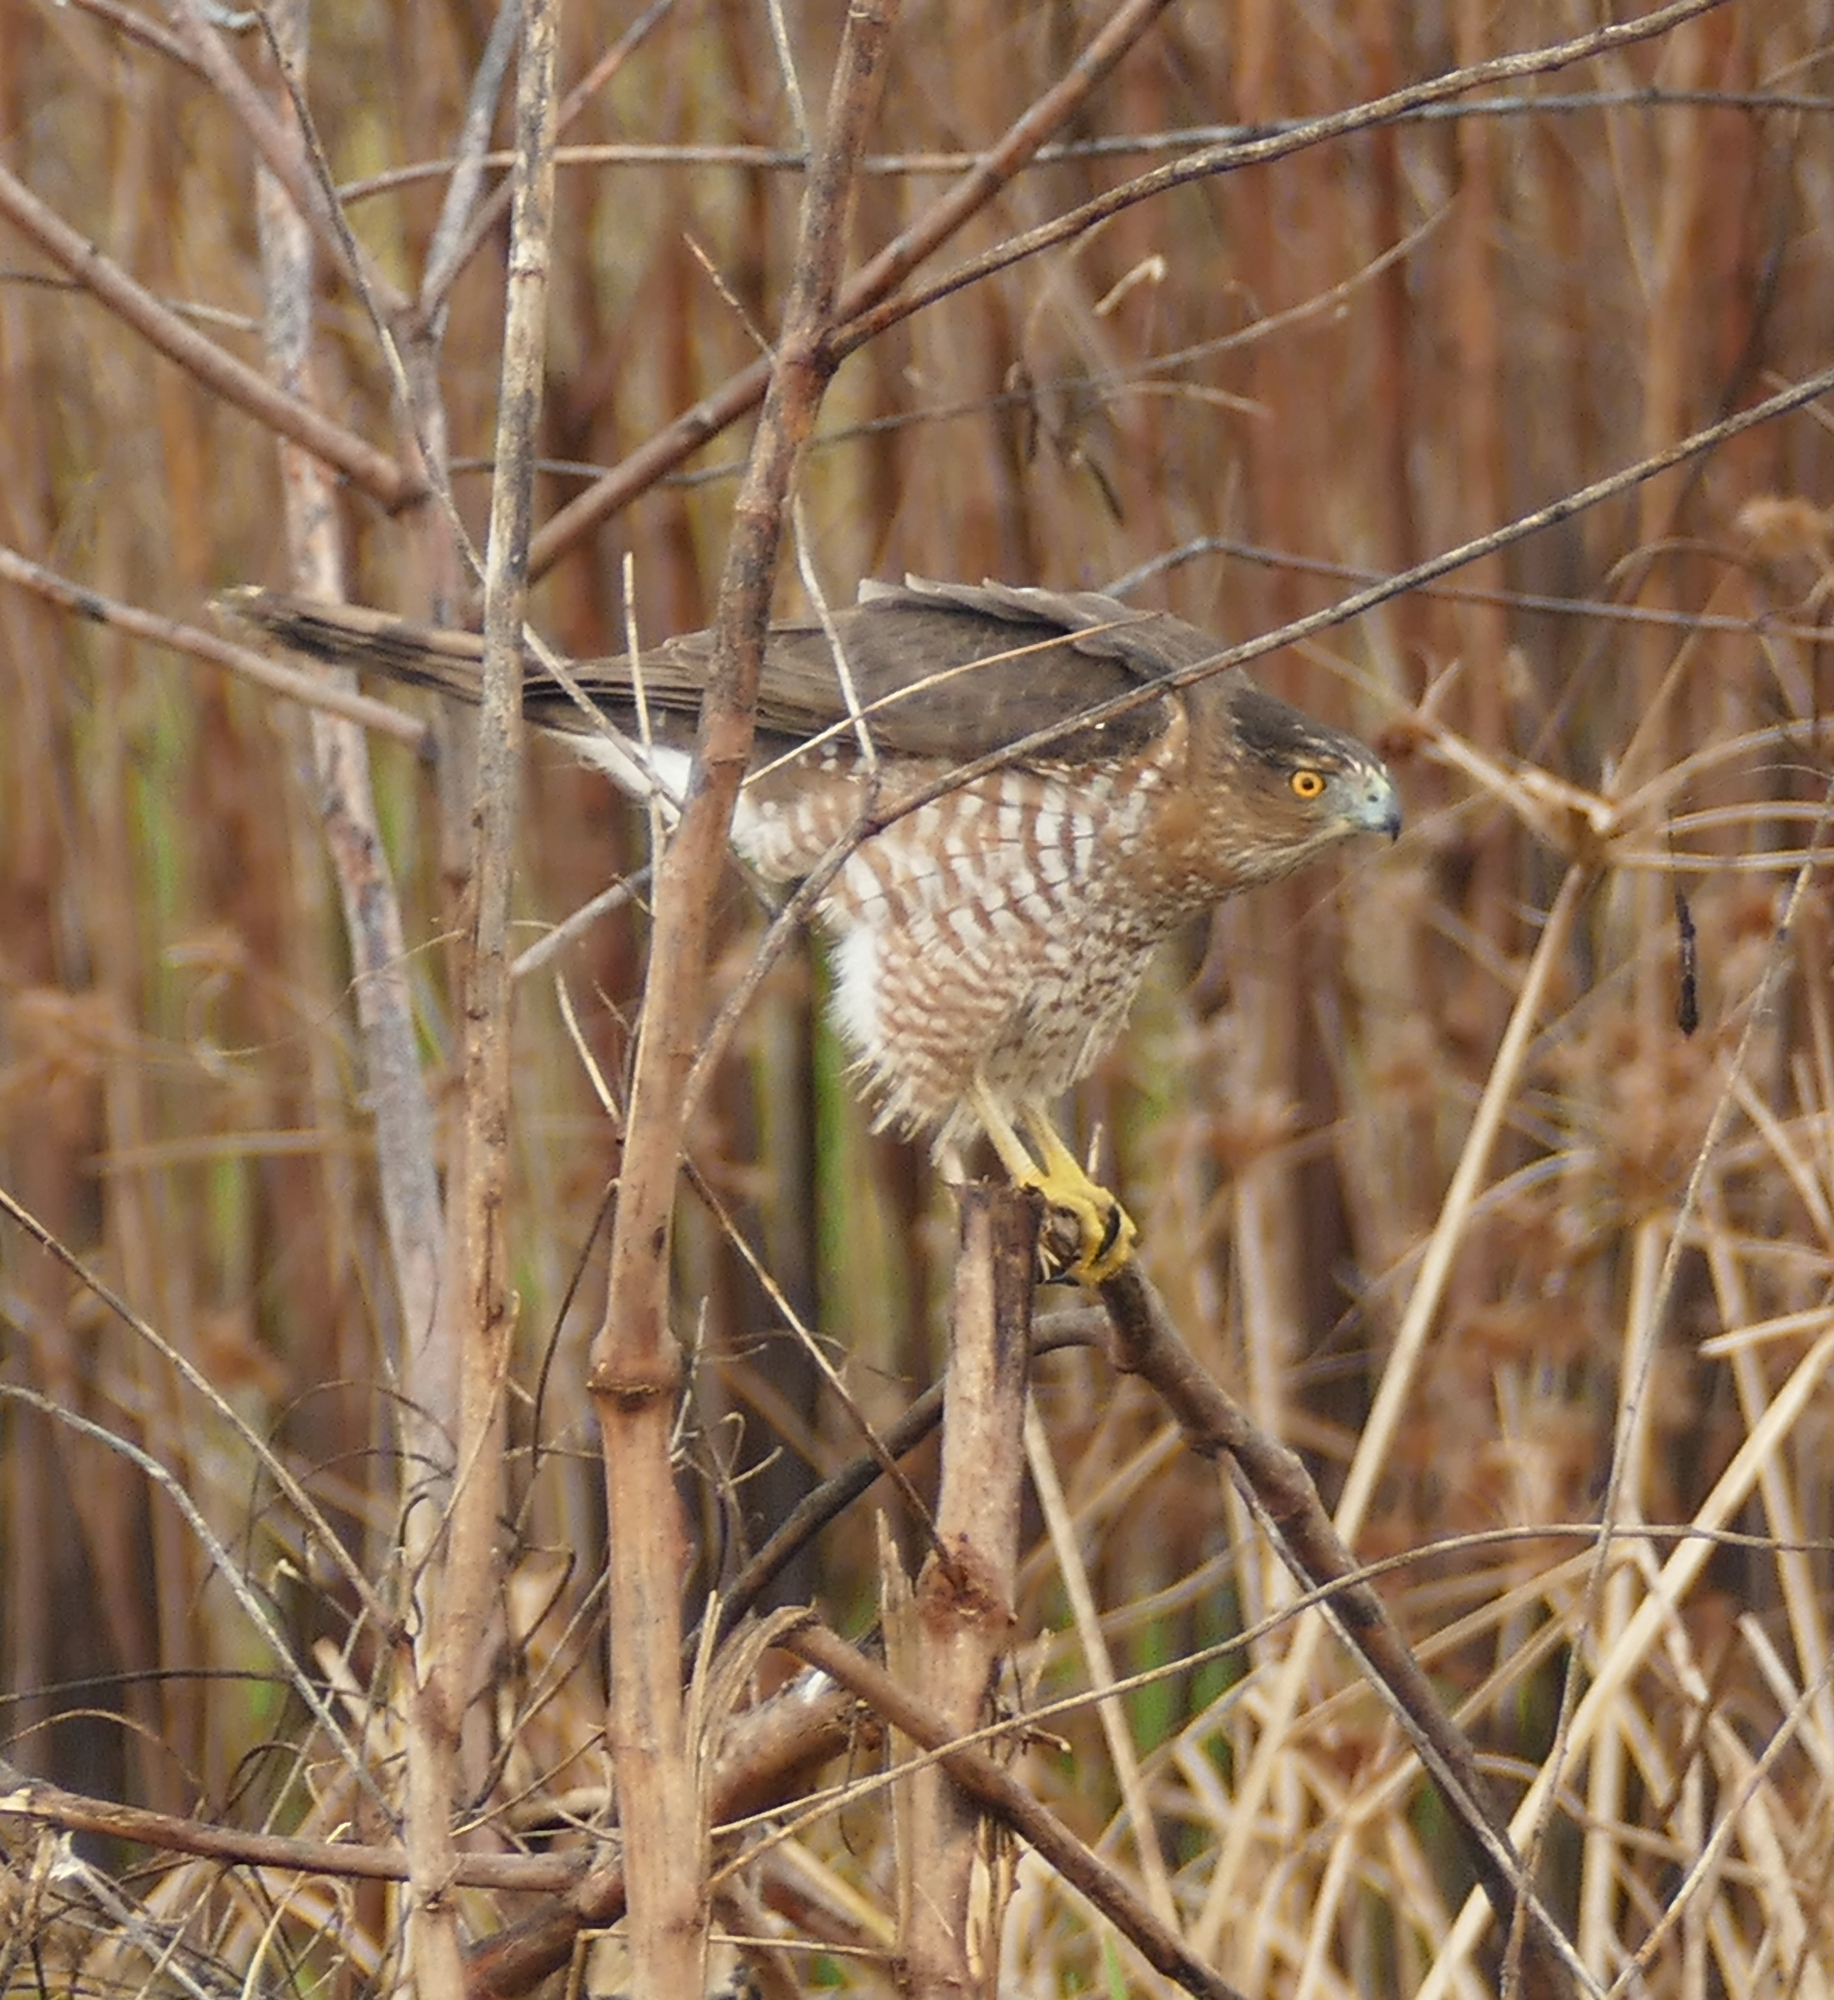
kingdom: Animalia
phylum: Chordata
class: Aves
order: Accipitriformes
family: Accipitridae
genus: Accipiter
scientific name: Accipiter cooperii
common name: Cooper's hawk
